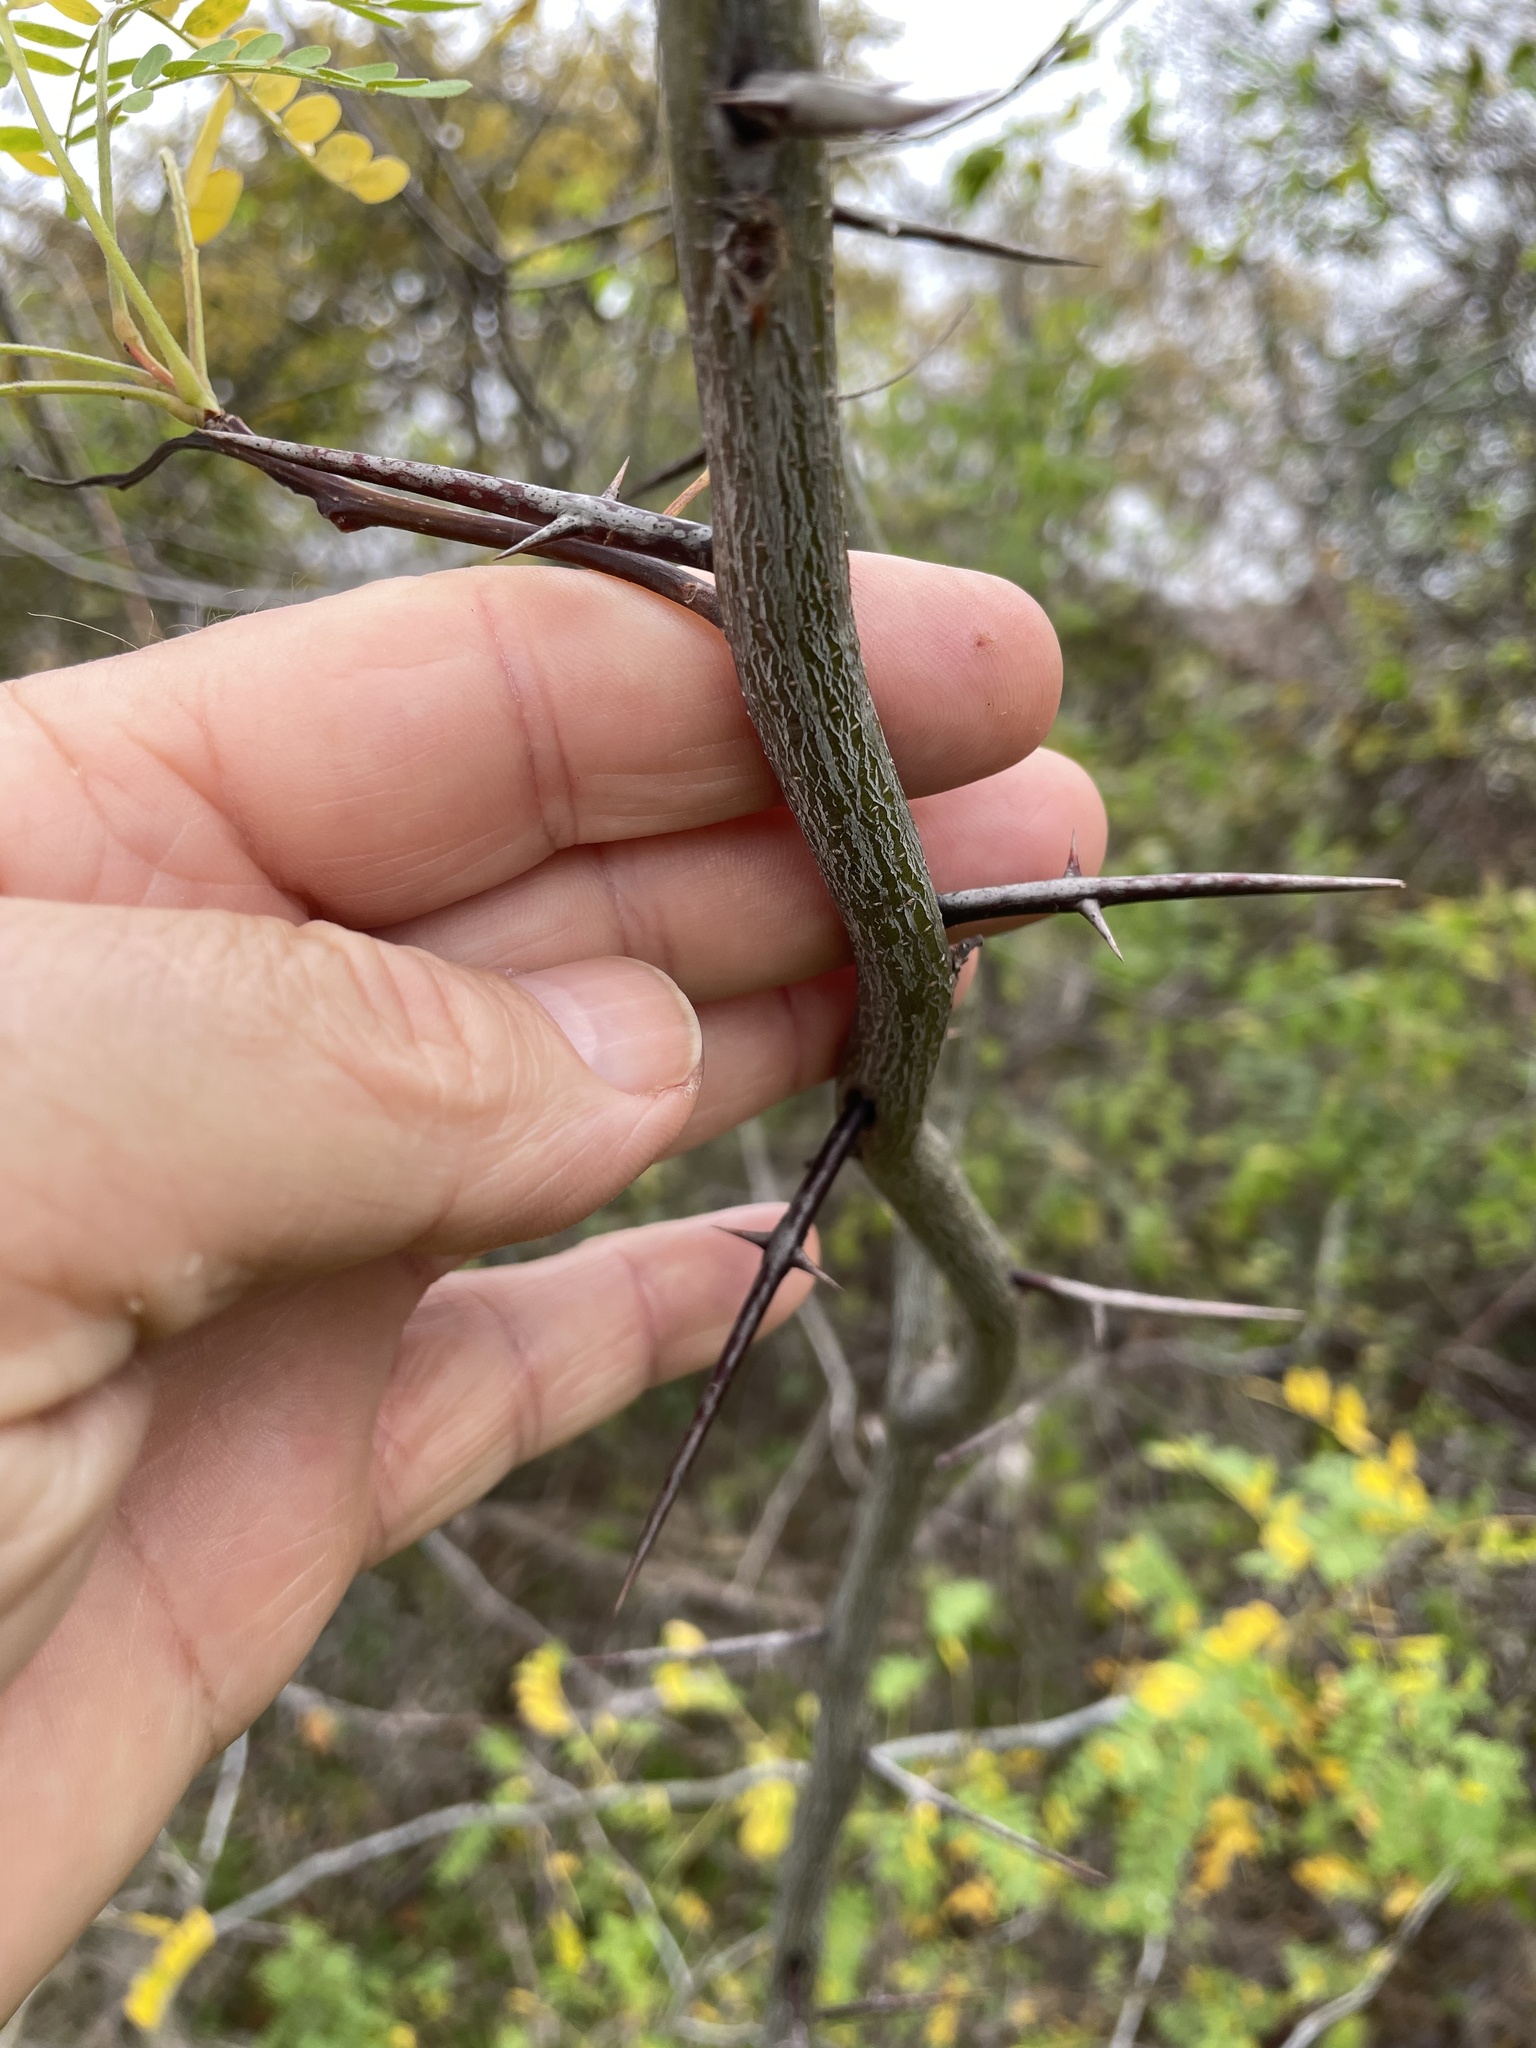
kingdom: Plantae
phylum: Tracheophyta
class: Magnoliopsida
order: Fabales
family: Fabaceae
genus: Gleditsia
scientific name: Gleditsia triacanthos
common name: Common honeylocust
